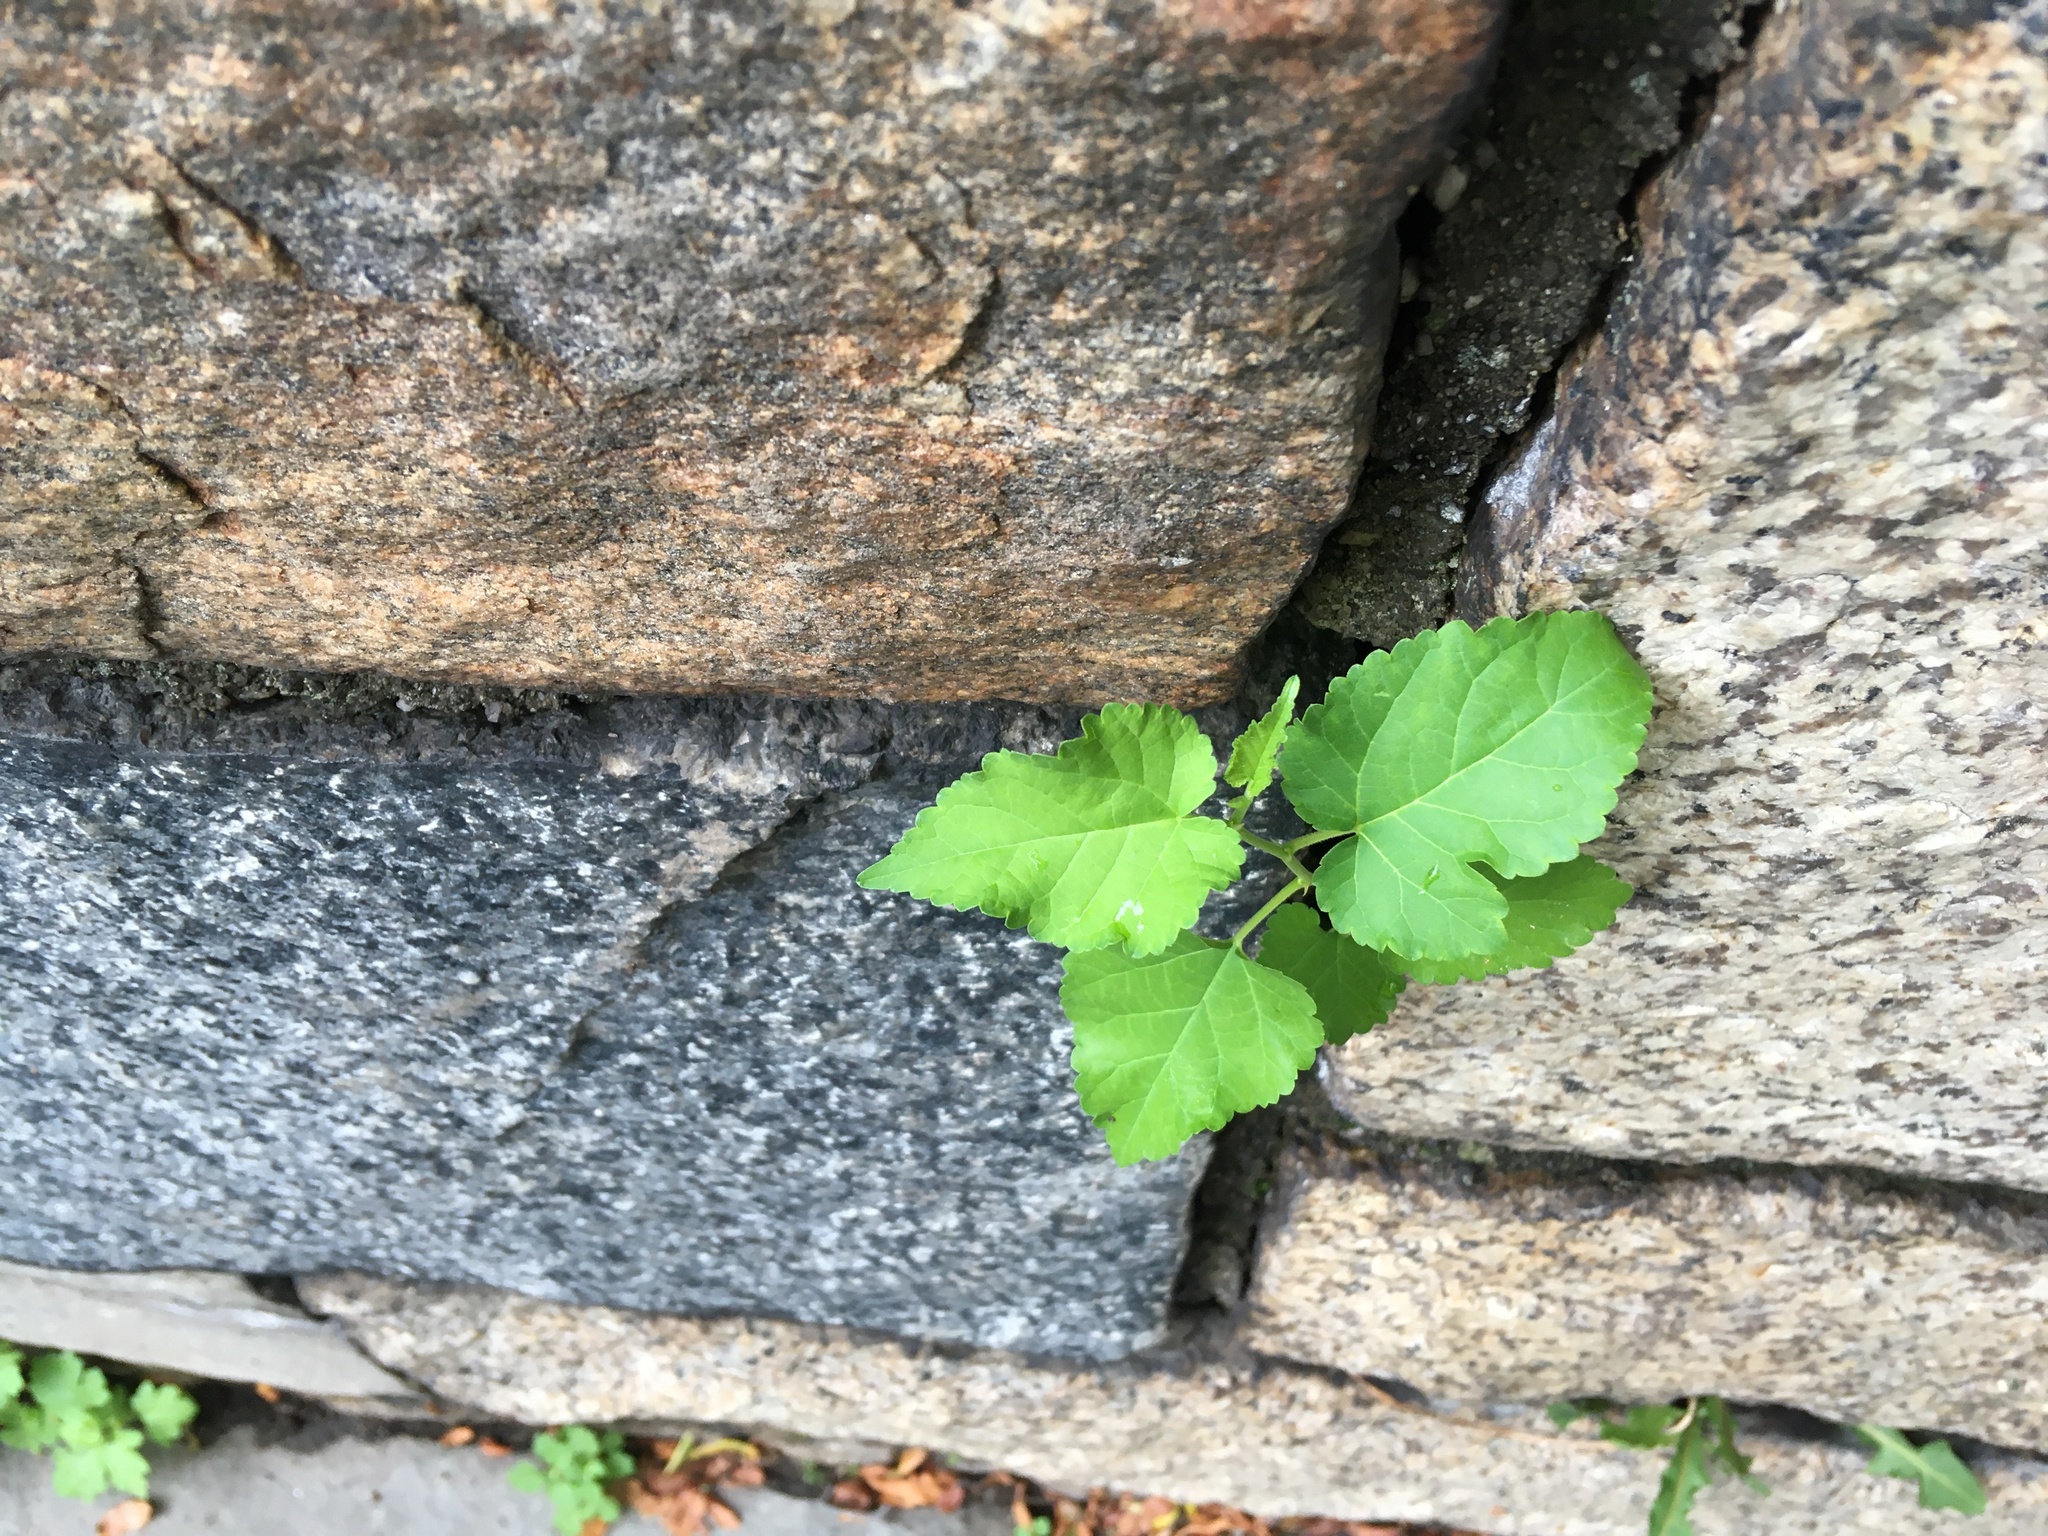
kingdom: Plantae
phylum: Tracheophyta
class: Magnoliopsida
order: Rosales
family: Moraceae
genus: Morus
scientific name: Morus alba
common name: White mulberry
